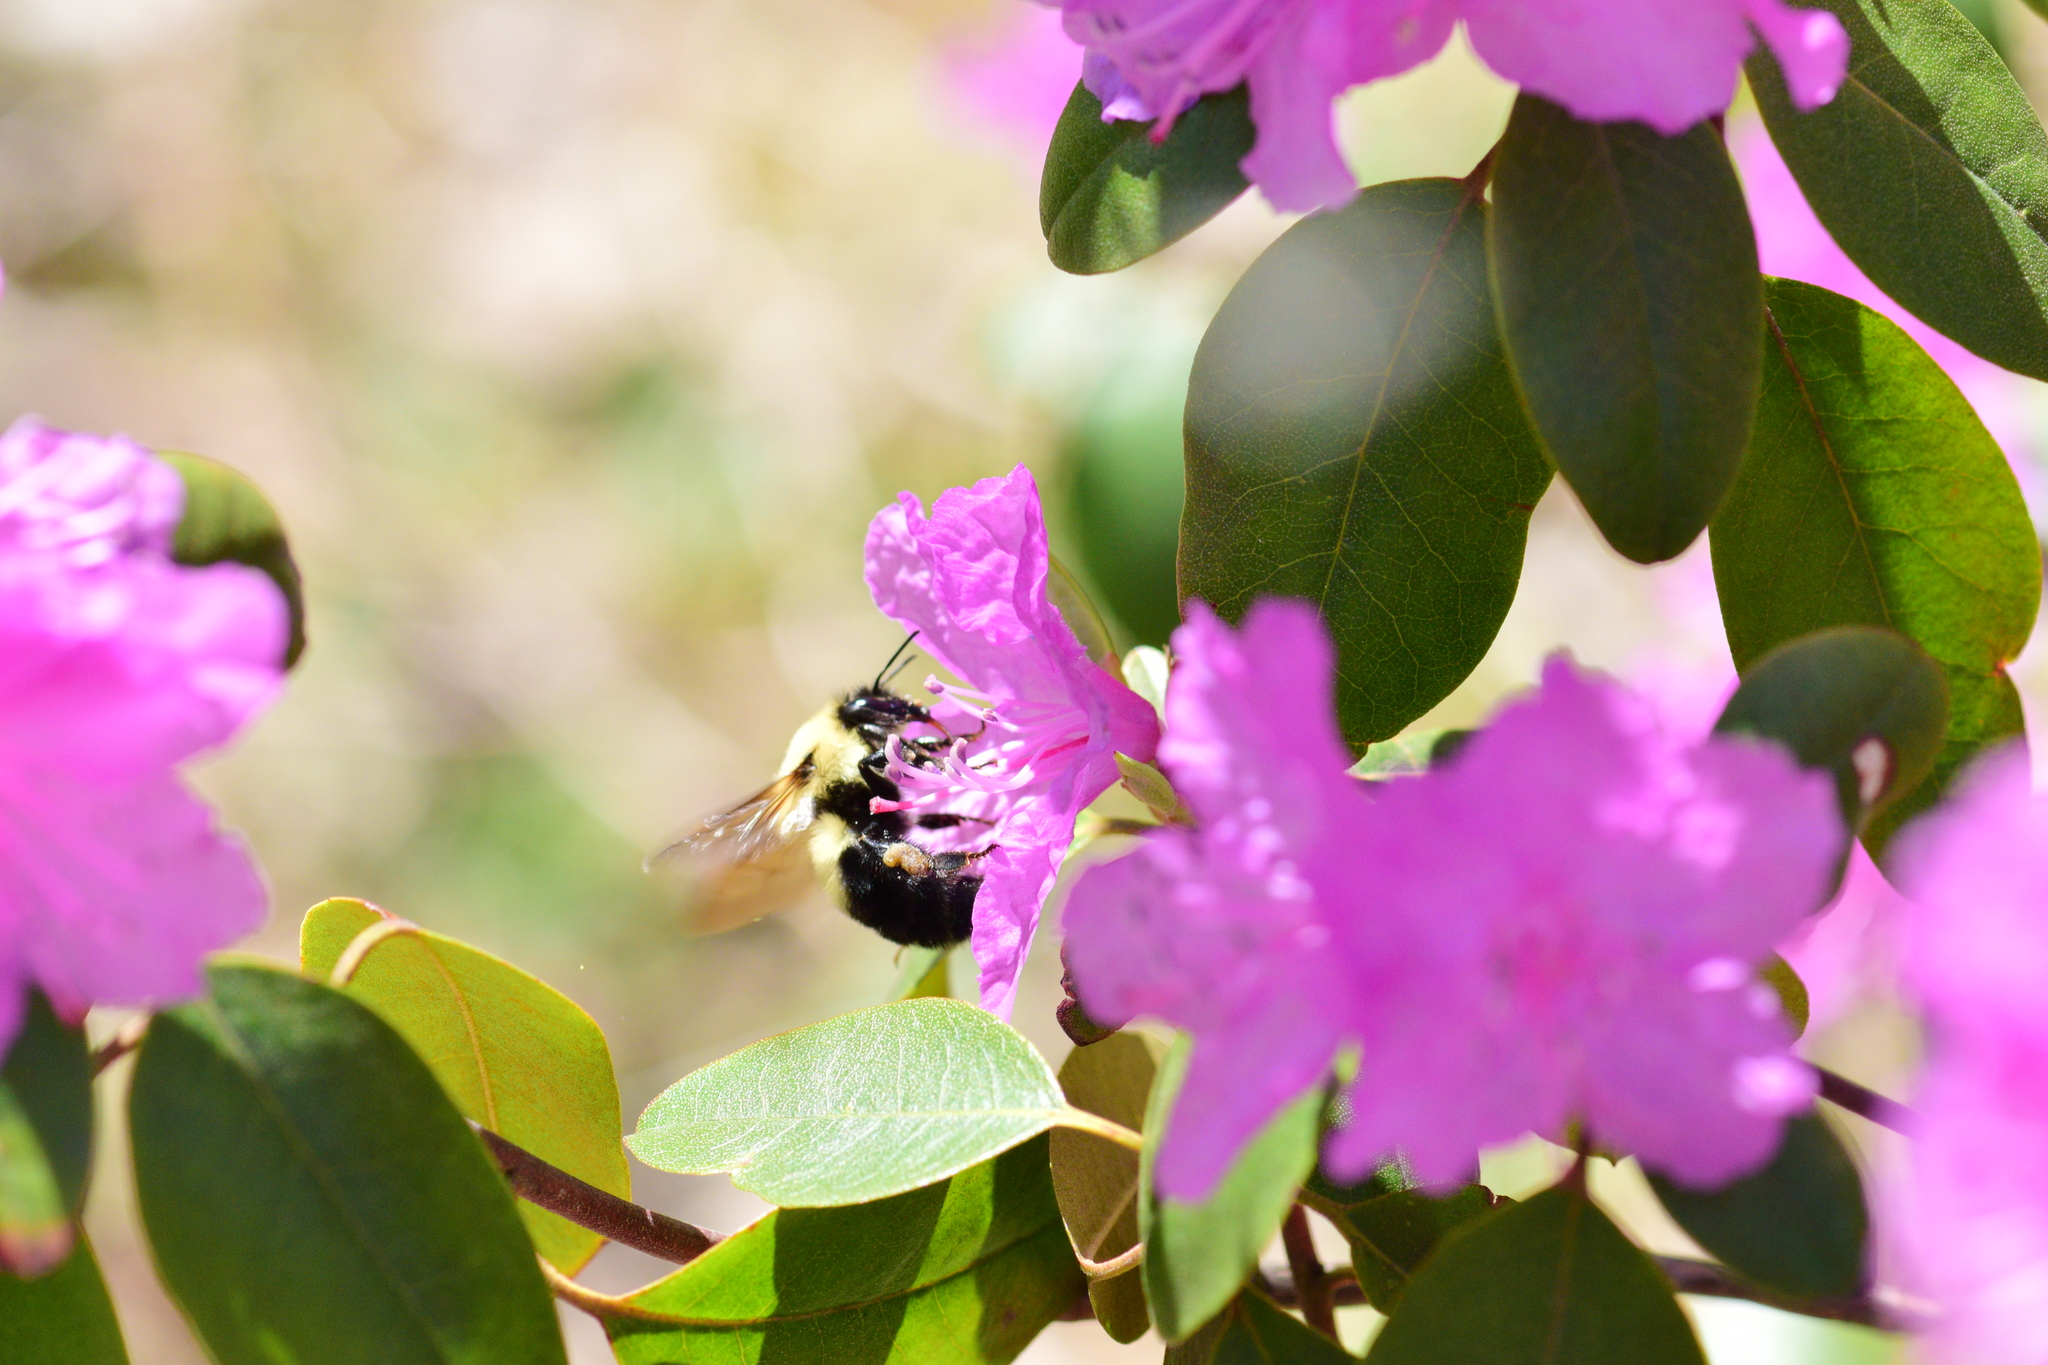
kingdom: Animalia
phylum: Arthropoda
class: Insecta
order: Hymenoptera
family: Apidae
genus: Bombus
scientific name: Bombus bimaculatus
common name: Two-spotted bumble bee
